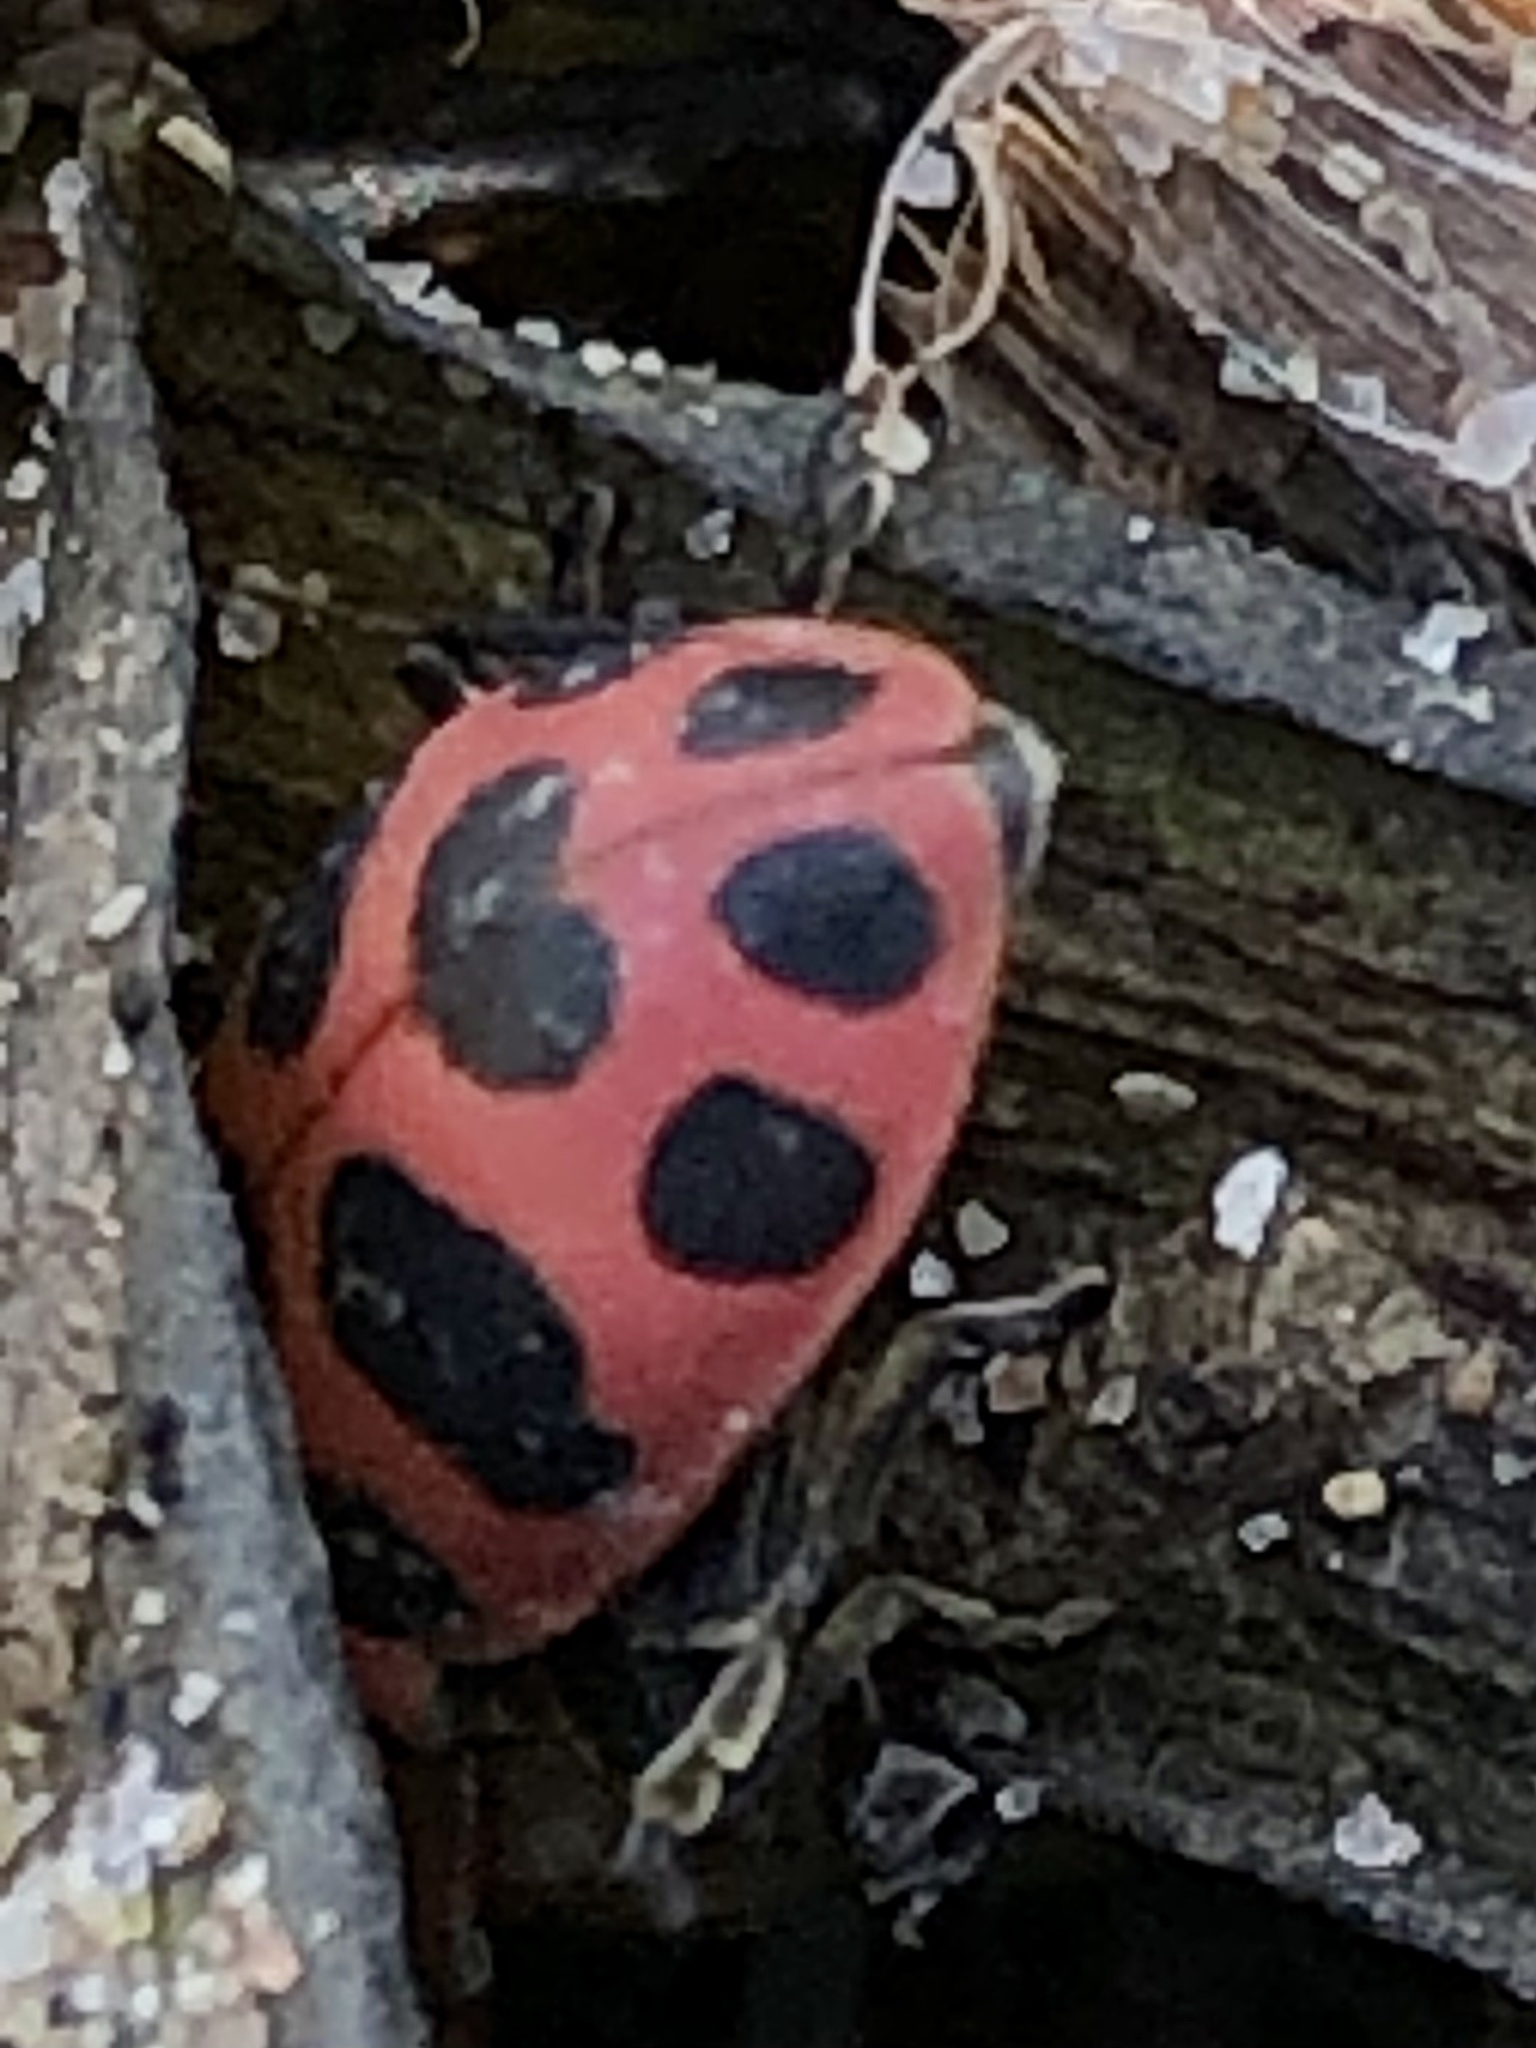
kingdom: Animalia
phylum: Arthropoda
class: Insecta
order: Coleoptera
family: Coccinellidae
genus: Coleomegilla
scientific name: Coleomegilla maculata
